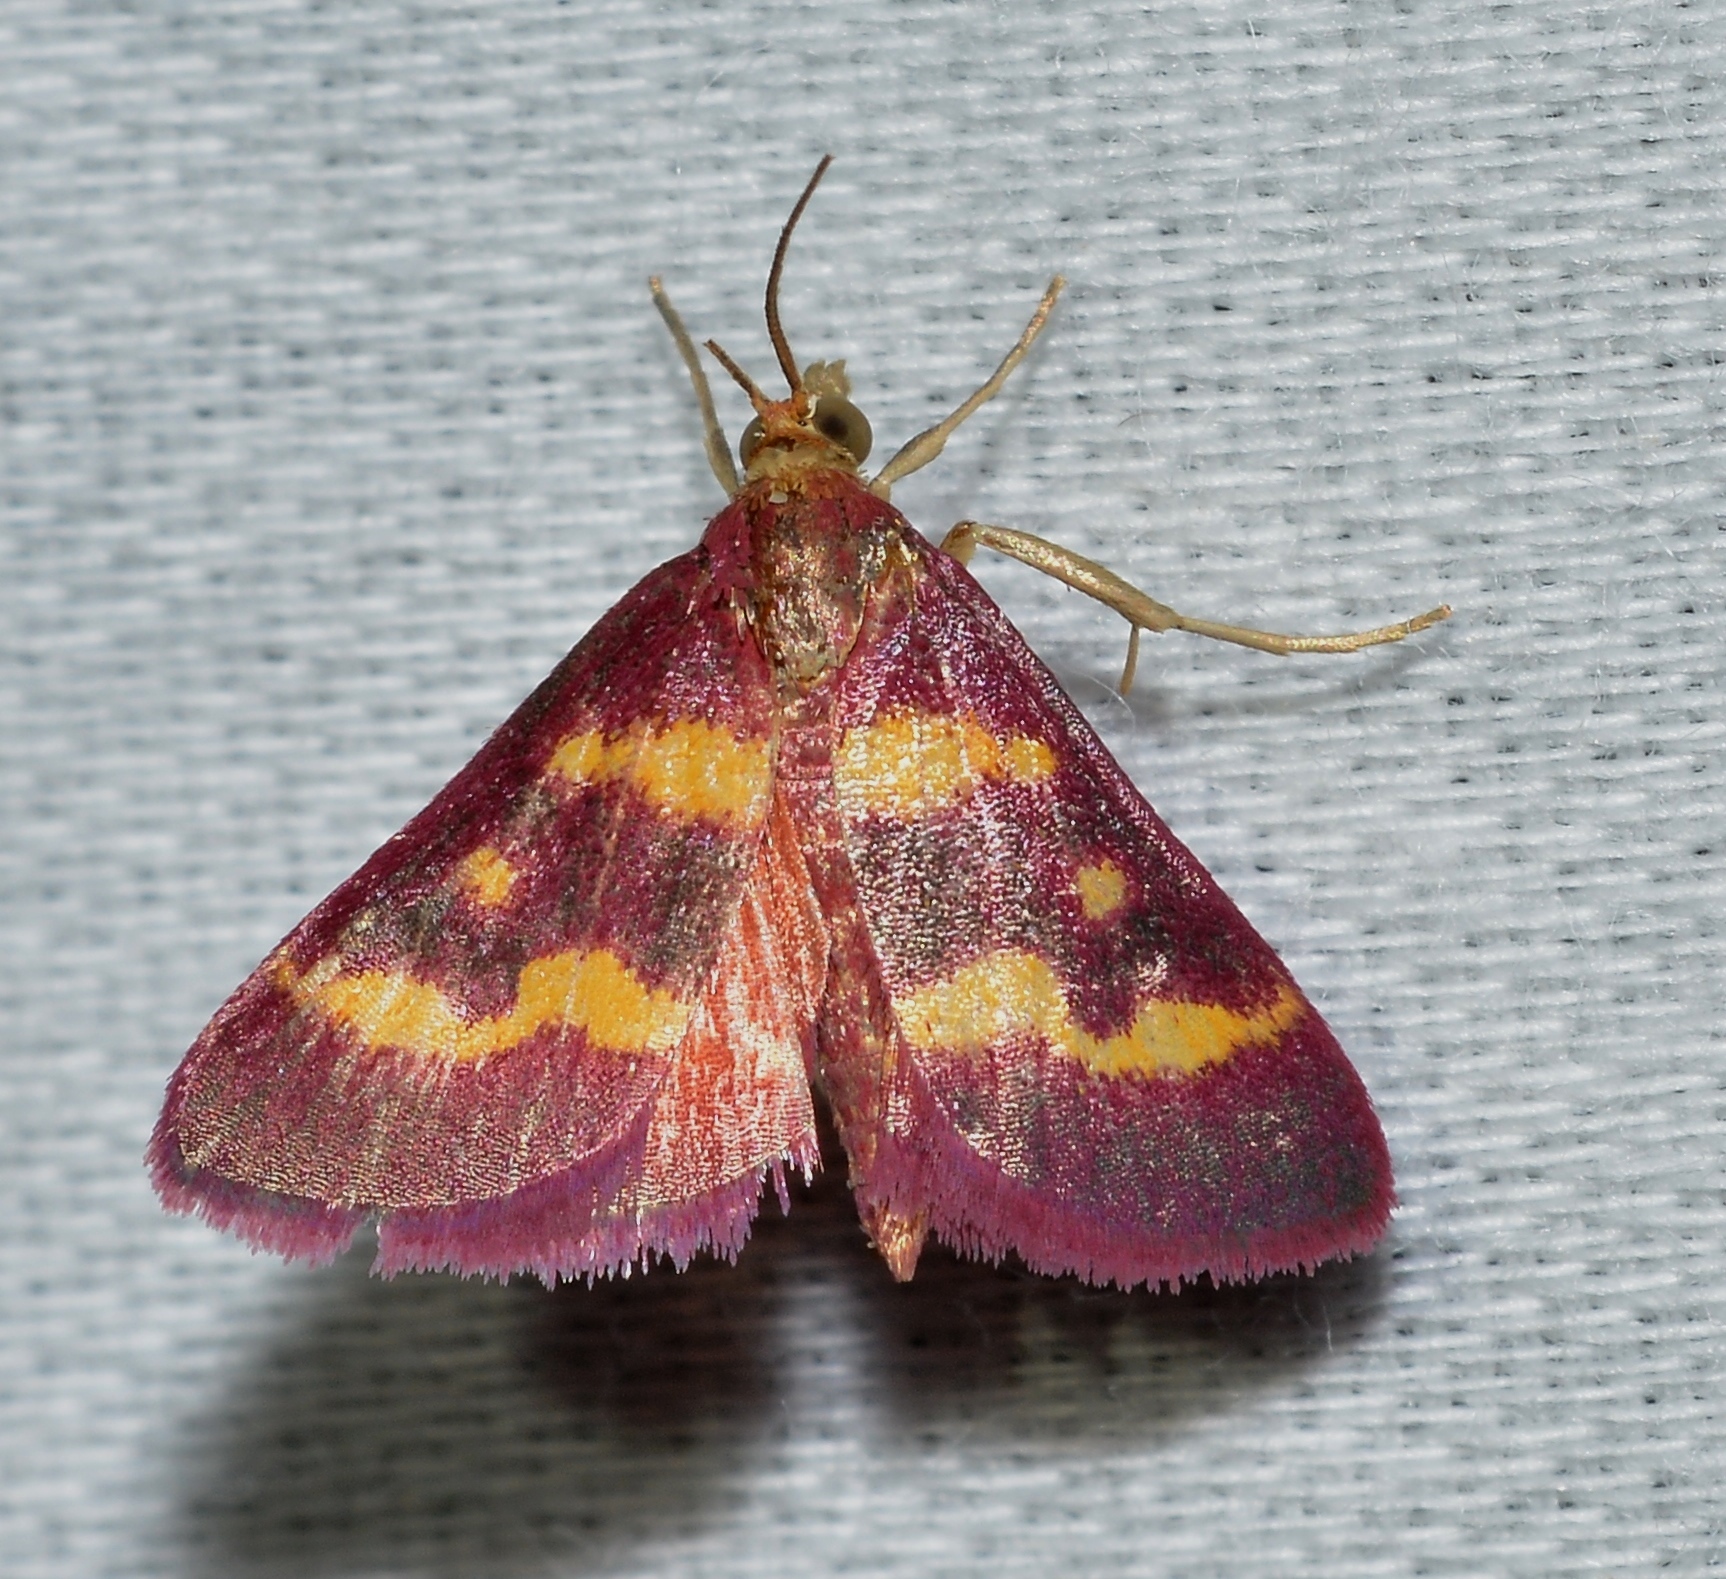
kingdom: Animalia
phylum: Arthropoda
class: Insecta
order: Lepidoptera
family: Crambidae
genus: Pyrausta
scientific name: Pyrausta tyralis
